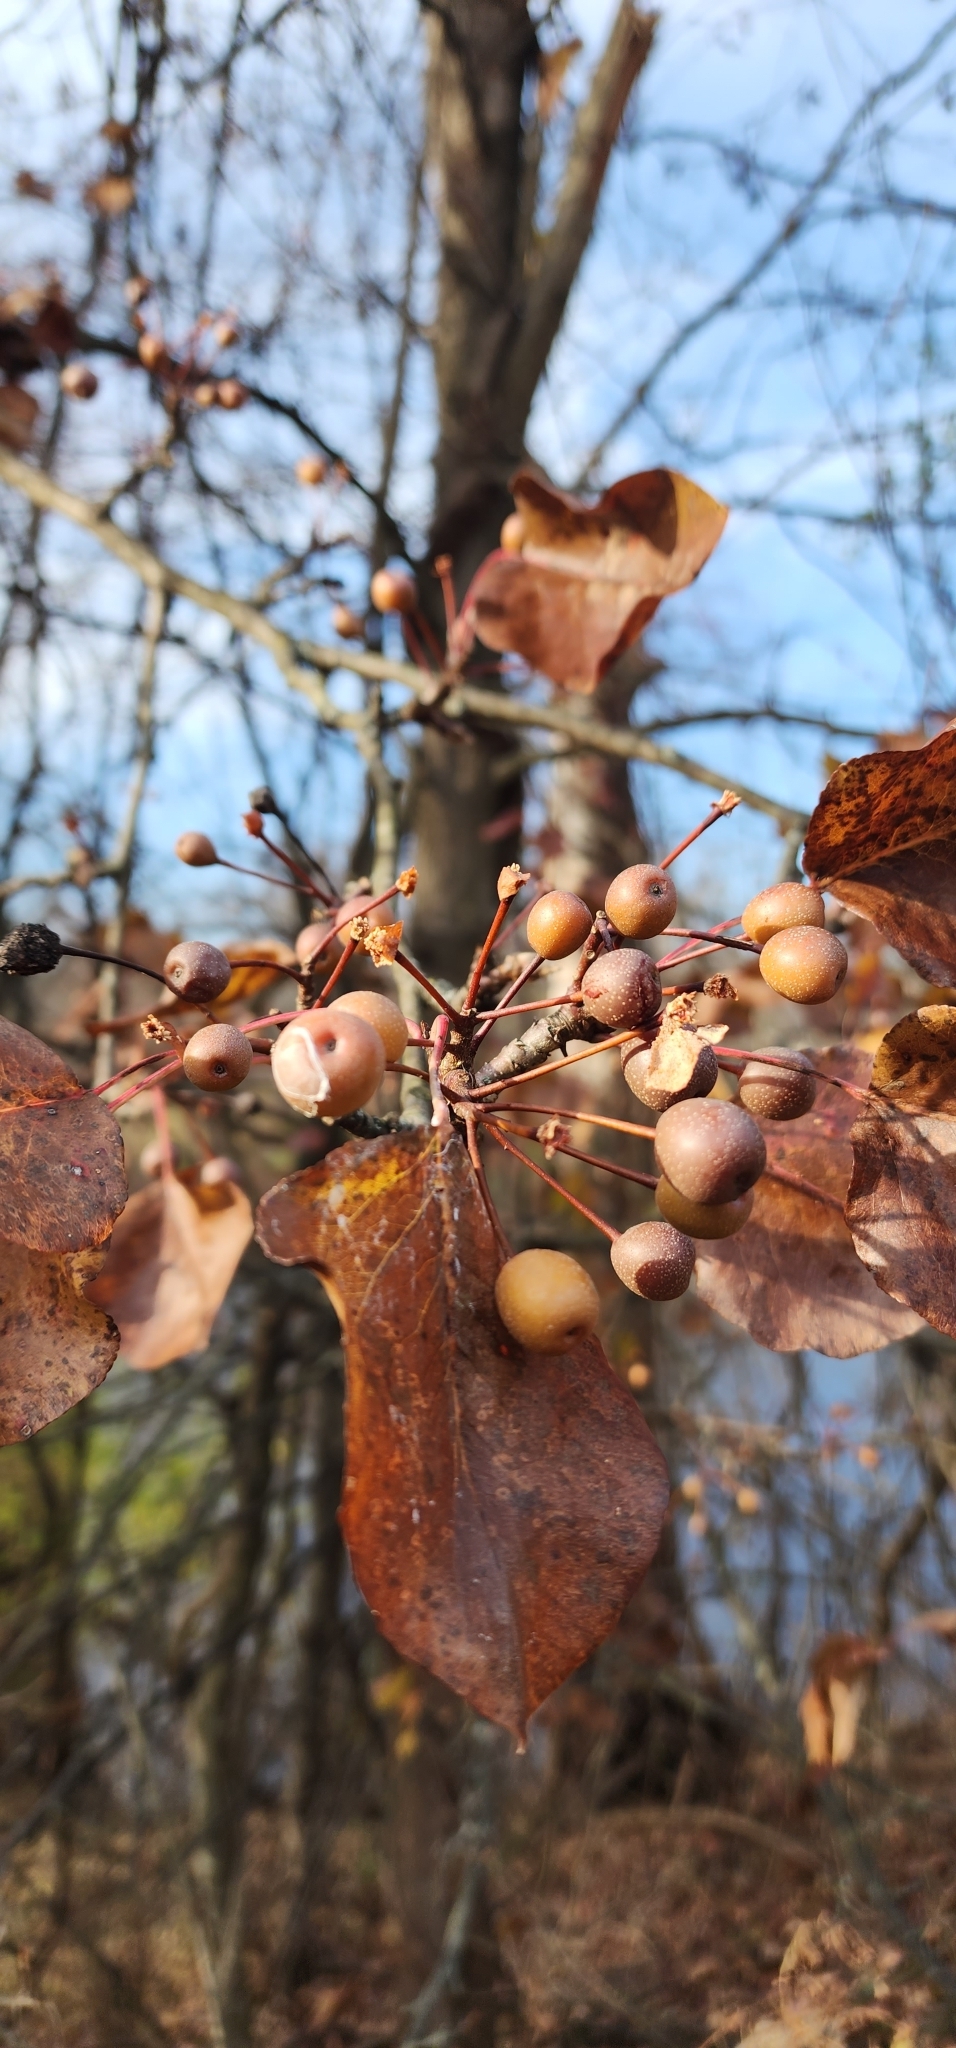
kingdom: Plantae
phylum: Tracheophyta
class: Magnoliopsida
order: Rosales
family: Rosaceae
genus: Pyrus
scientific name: Pyrus calleryana
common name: Callery pear
